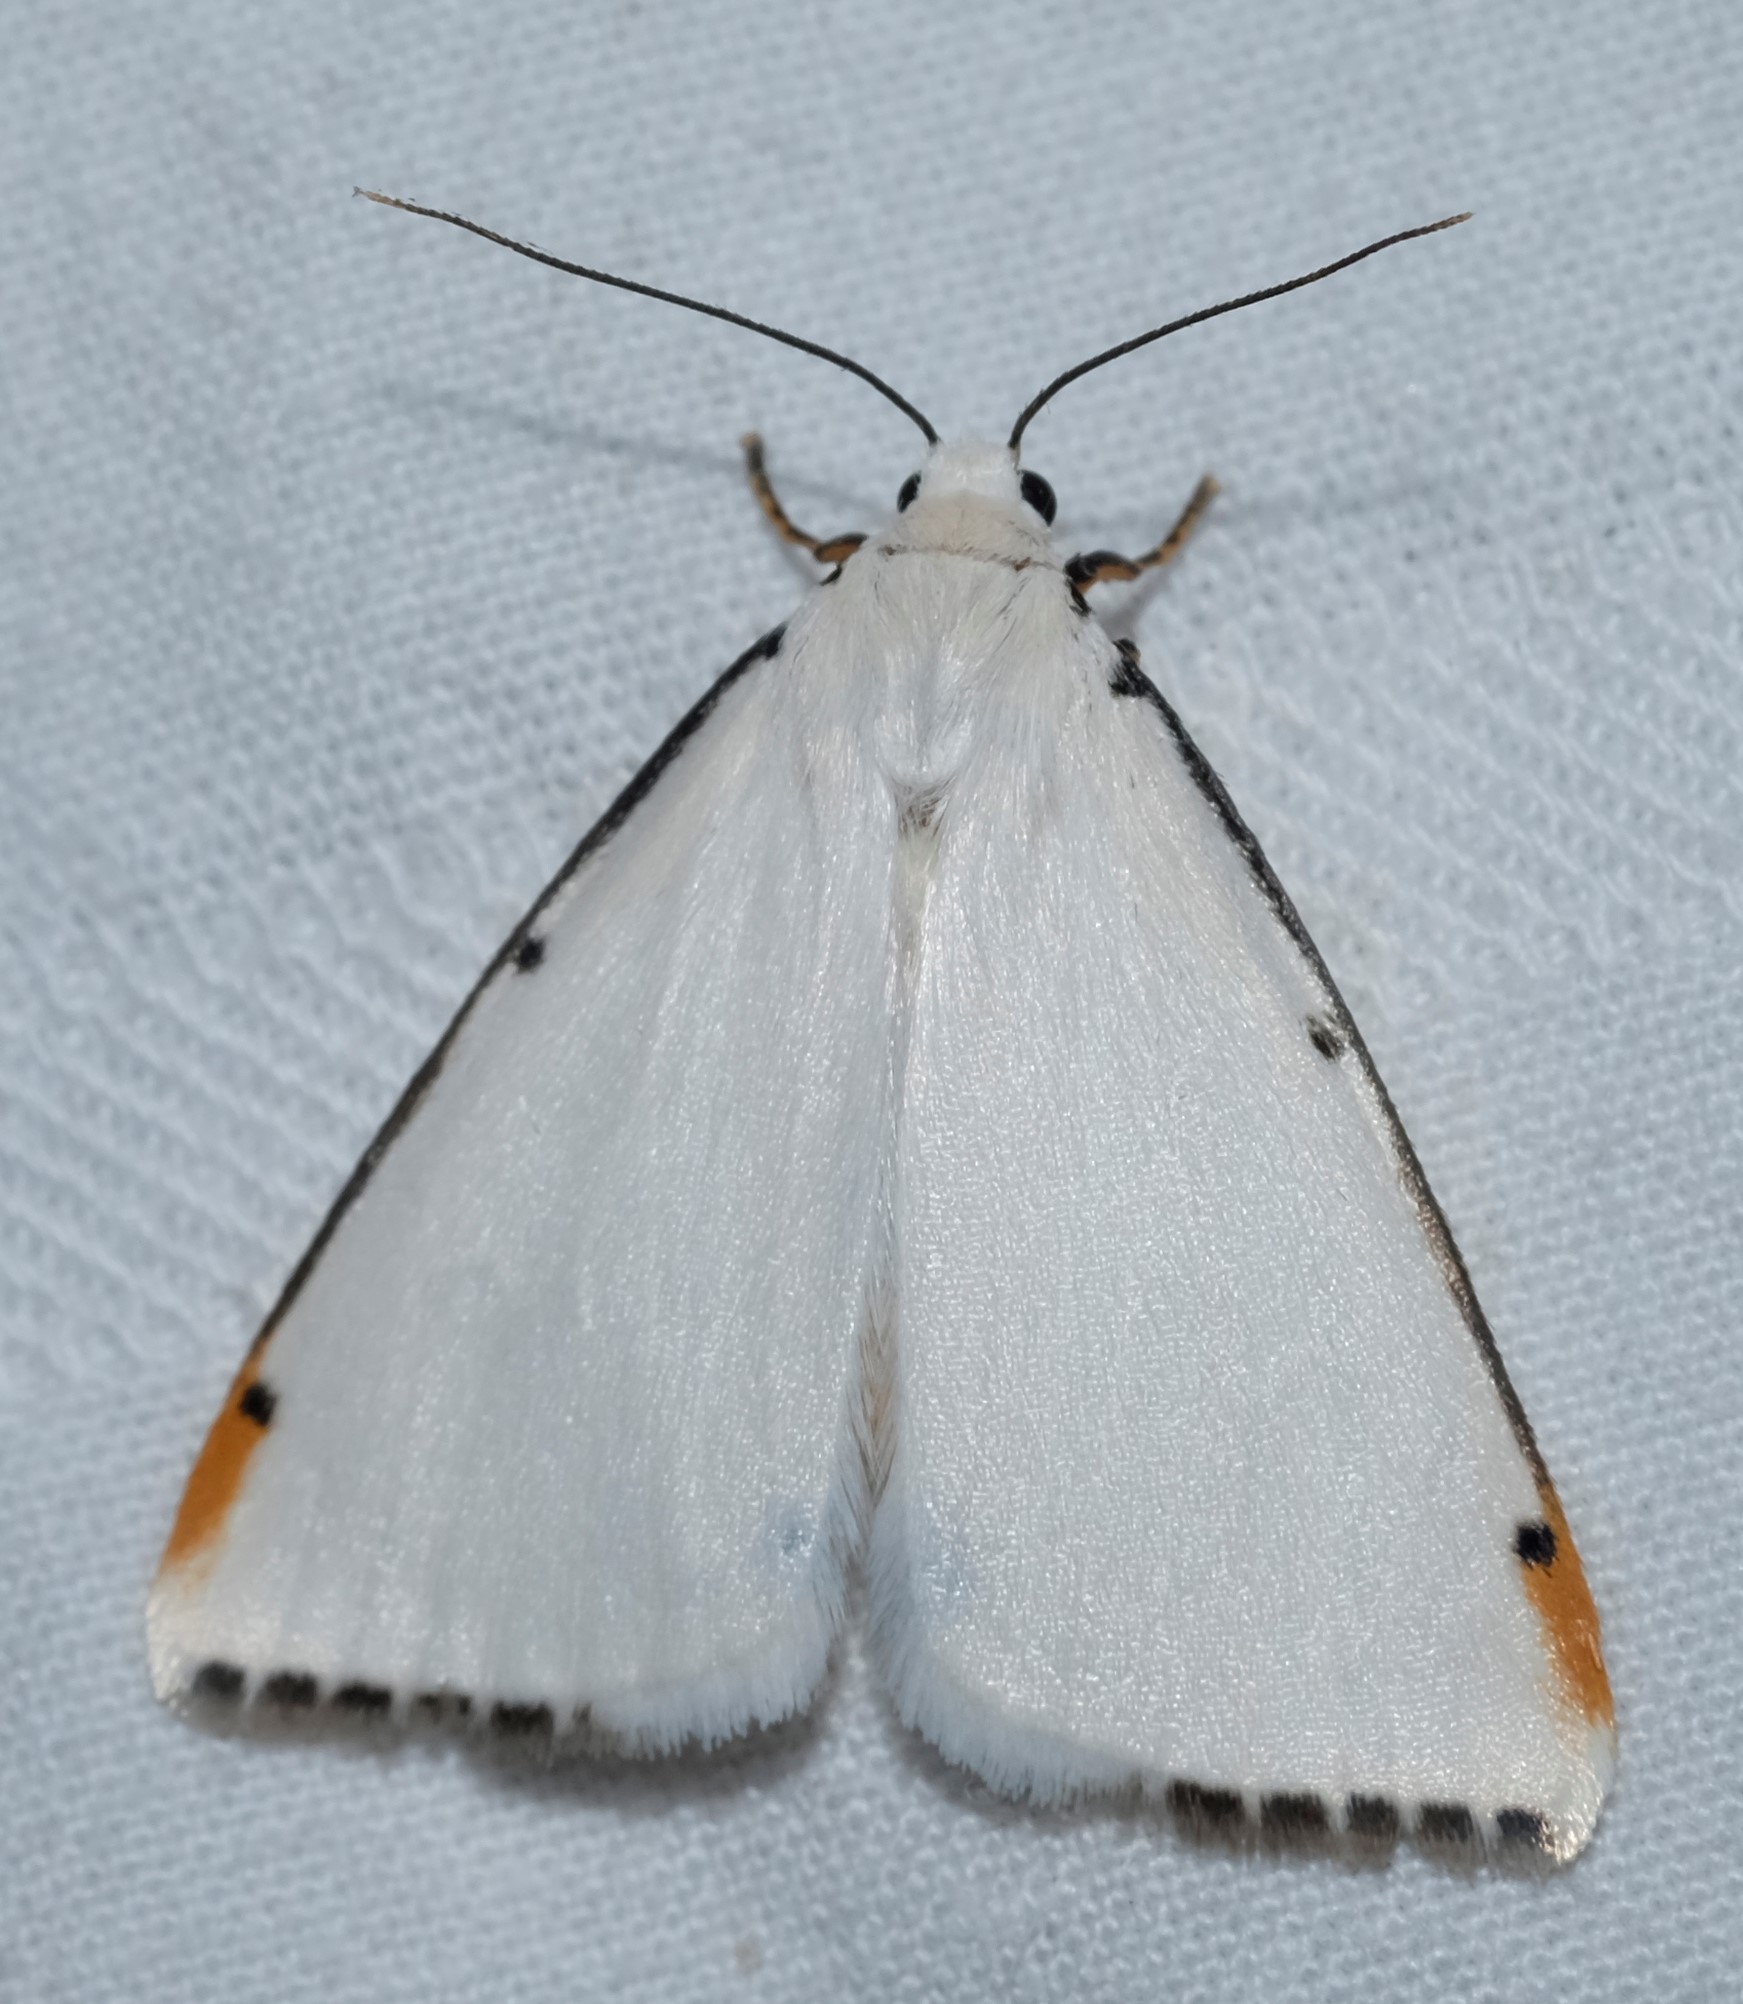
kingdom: Animalia
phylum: Arthropoda
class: Insecta
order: Lepidoptera
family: Erebidae
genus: Termessa
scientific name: Termessa nivosa
